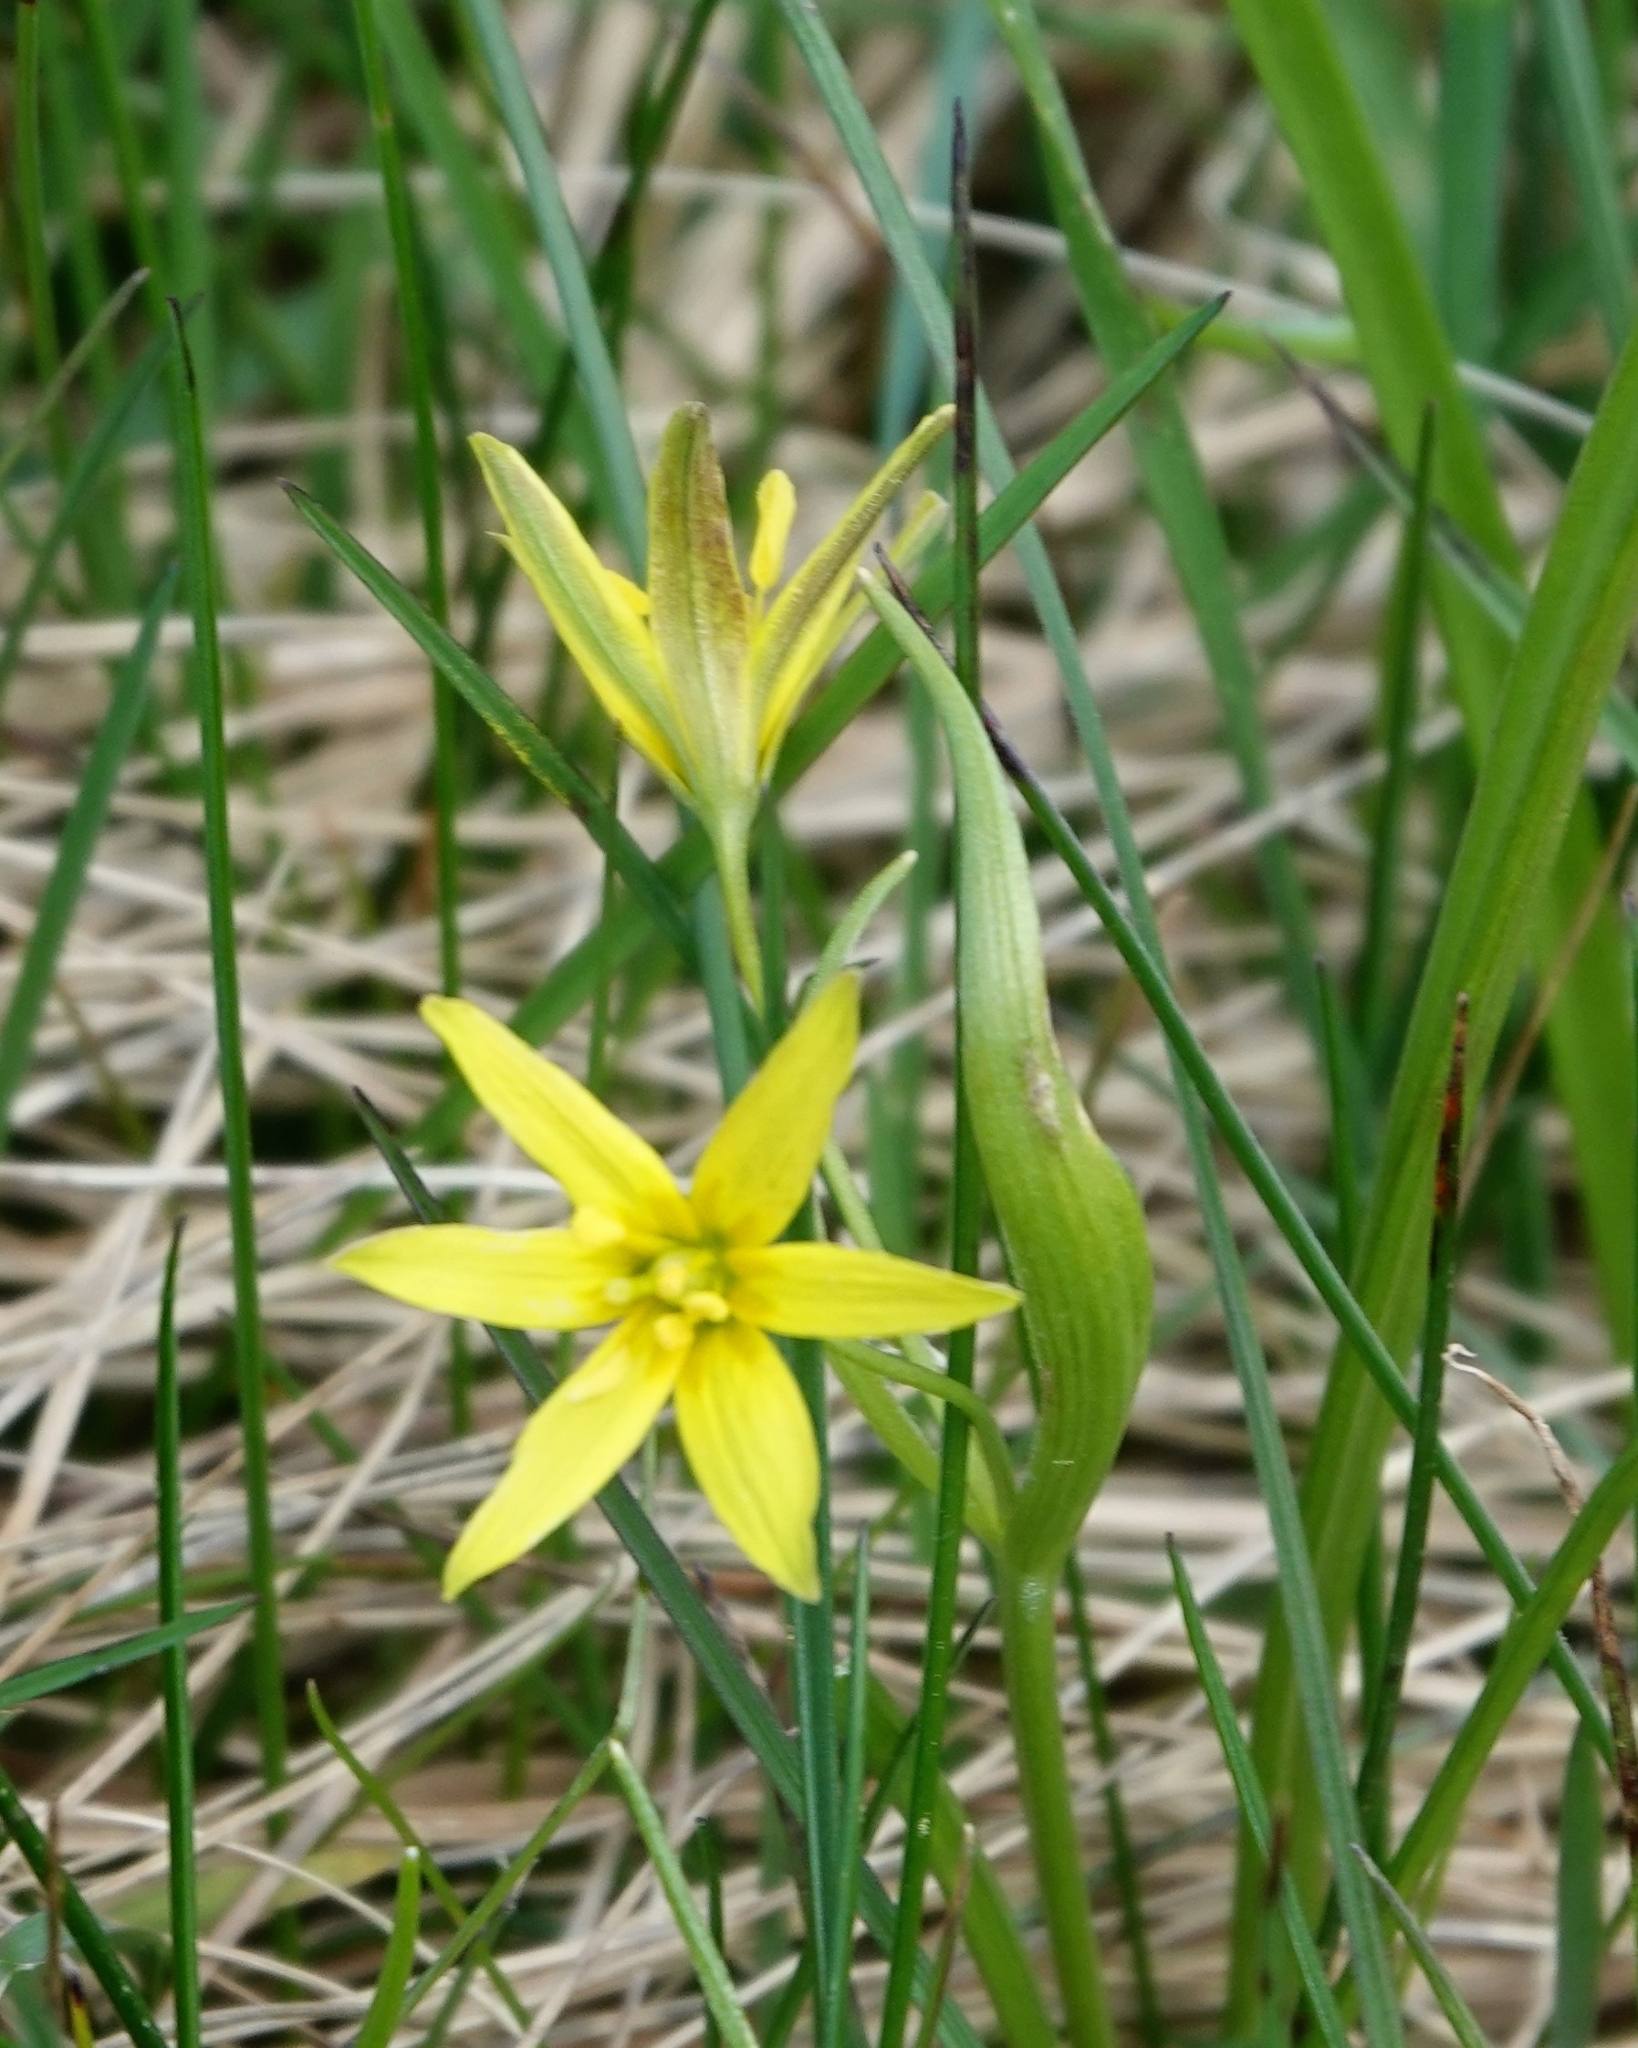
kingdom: Plantae
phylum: Tracheophyta
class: Liliopsida
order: Liliales
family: Liliaceae
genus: Gagea
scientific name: Gagea lutea
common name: Yellow star-of-bethlehem
